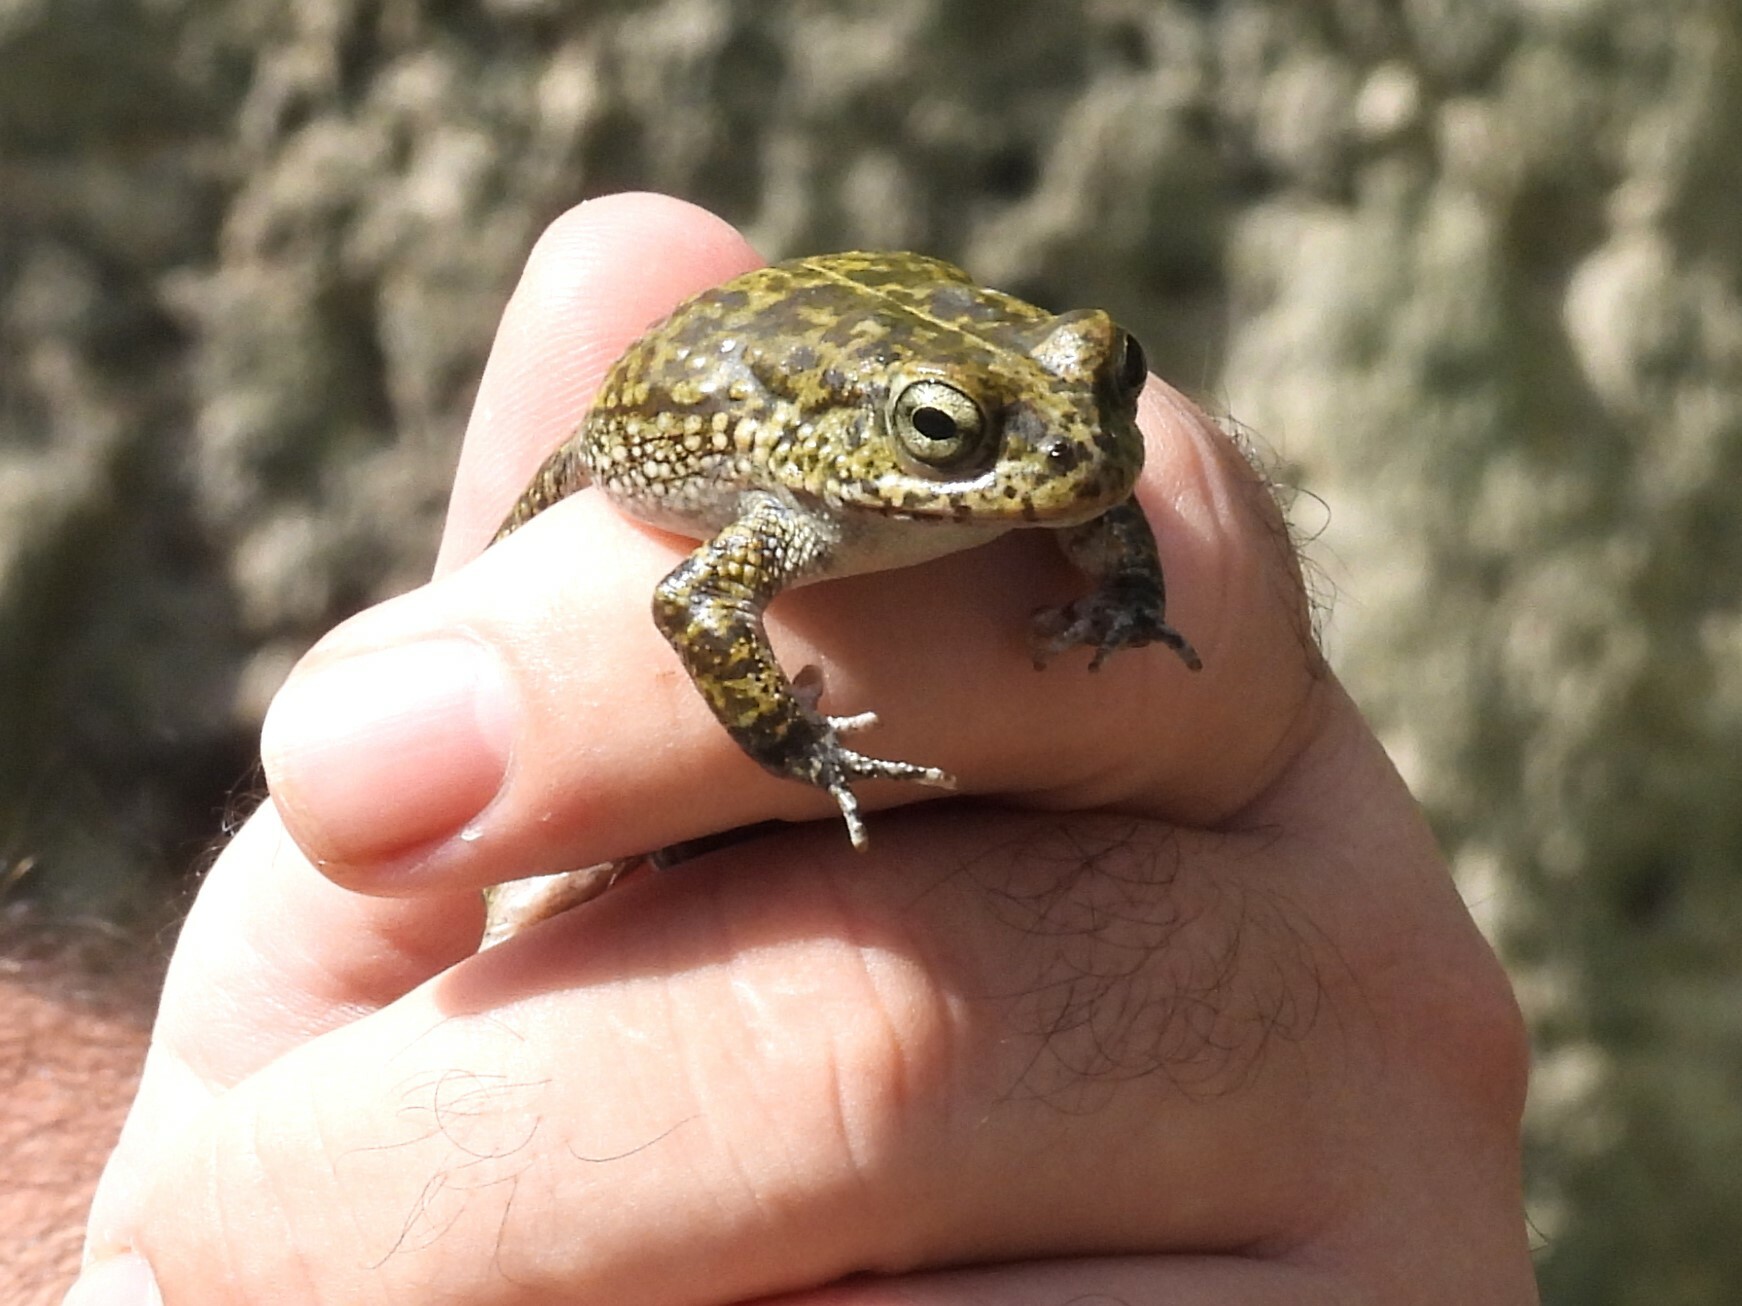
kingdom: Animalia
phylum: Chordata
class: Amphibia
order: Anura
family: Bufonidae
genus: Sclerophrys
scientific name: Sclerophrys arabica
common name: Arabian toad
